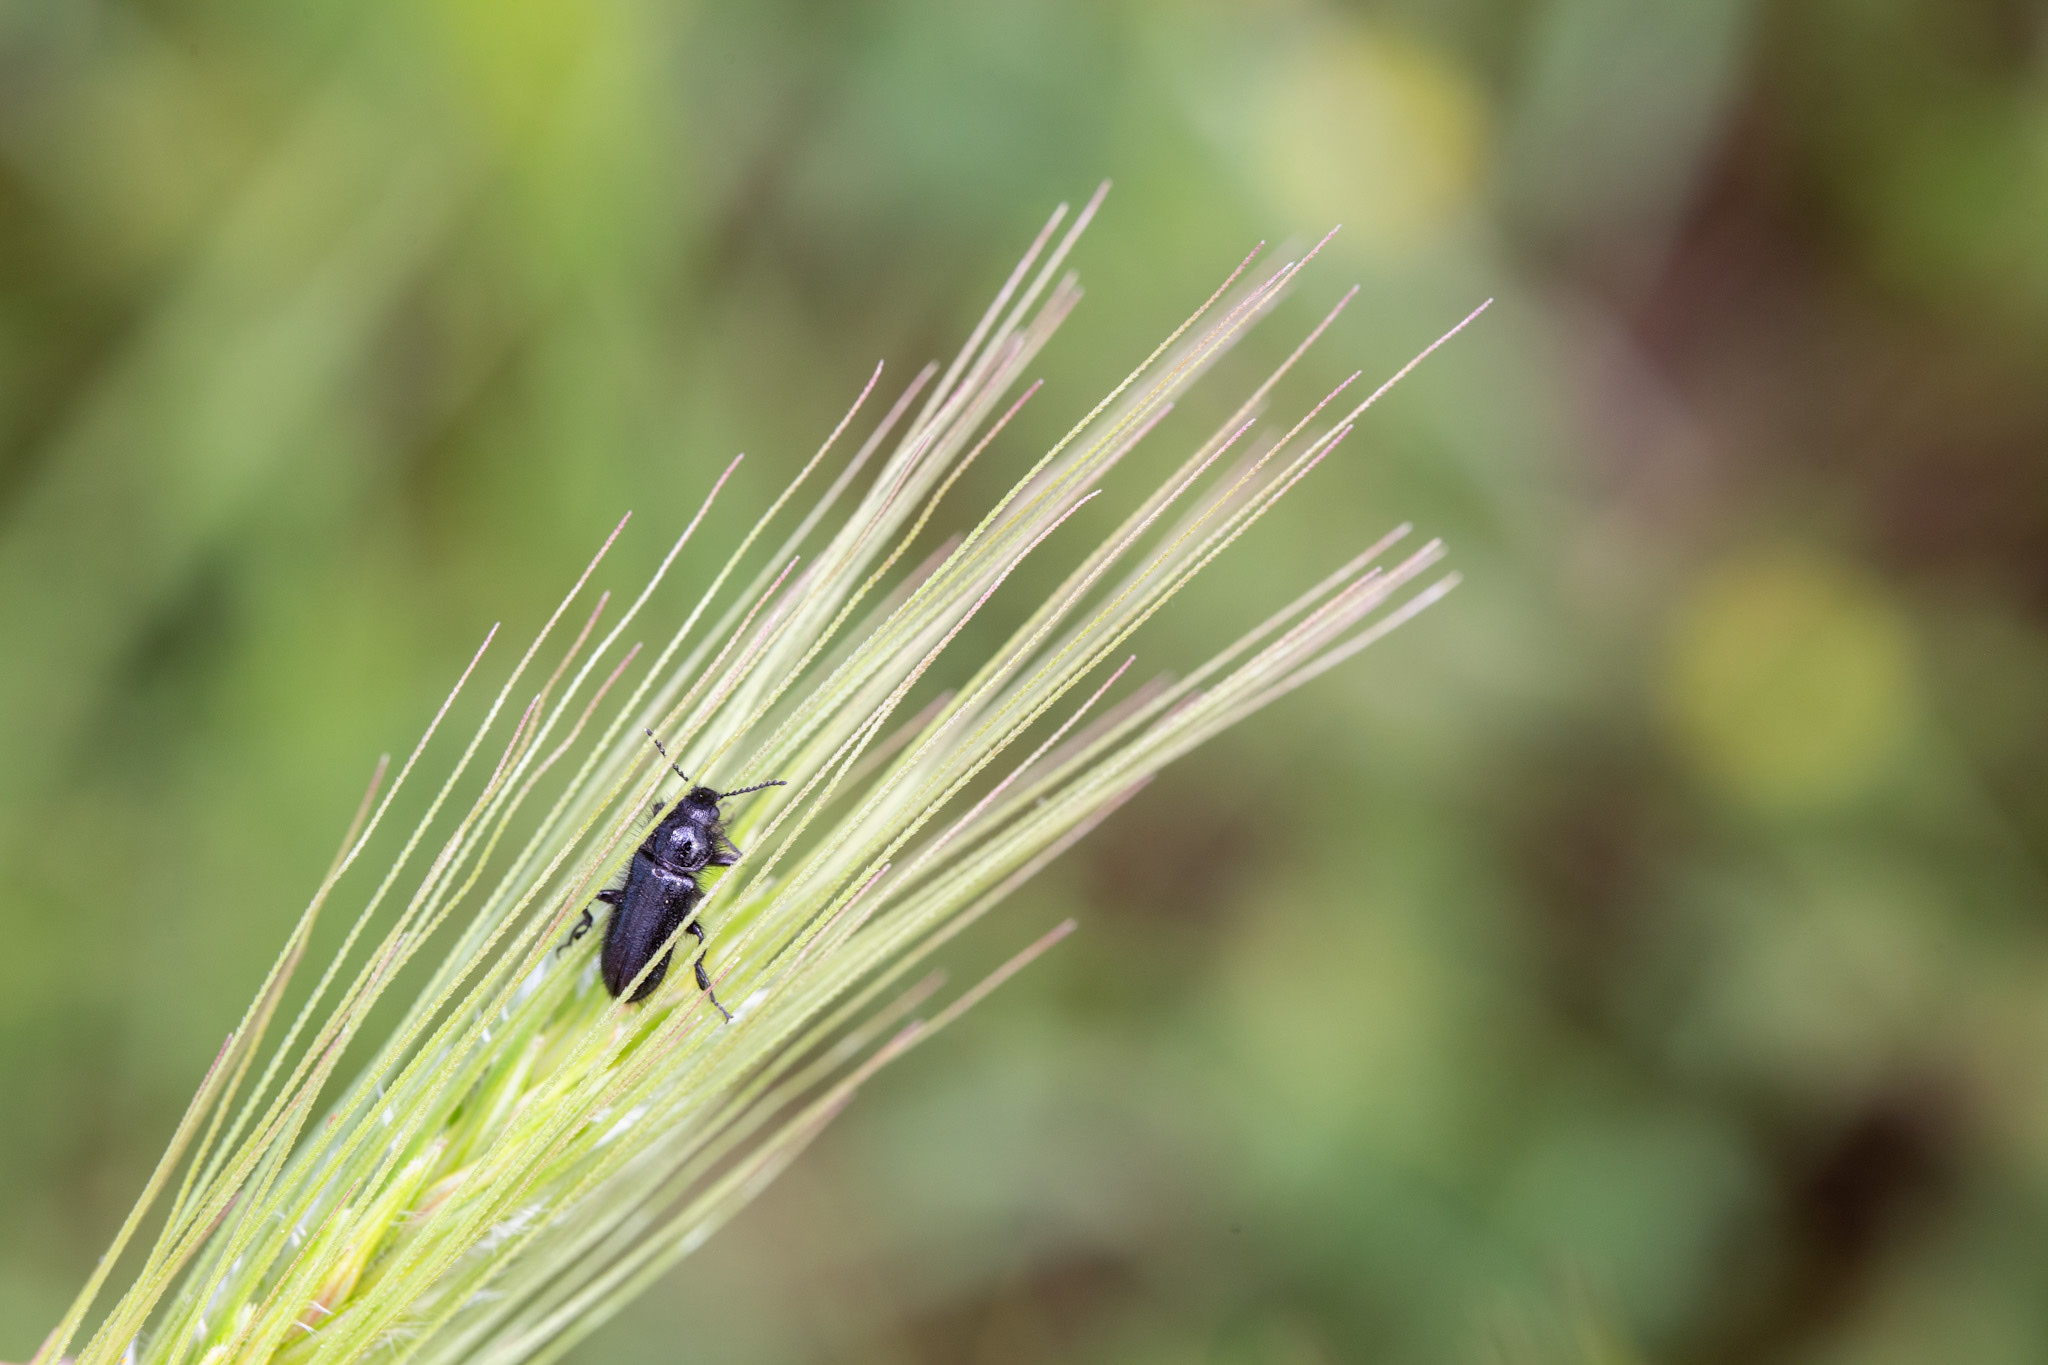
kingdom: Animalia
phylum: Arthropoda
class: Insecta
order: Coleoptera
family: Melyridae
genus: Enicopus
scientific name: Enicopus ater
